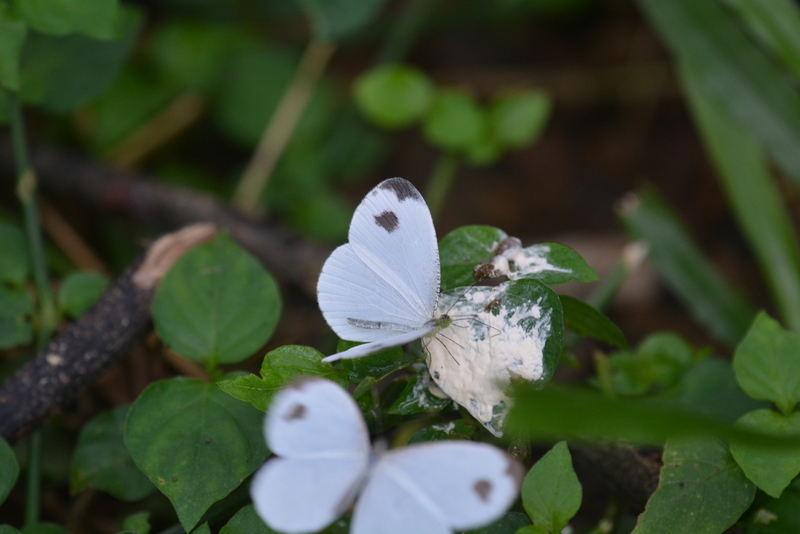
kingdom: Animalia
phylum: Arthropoda
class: Insecta
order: Lepidoptera
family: Pieridae
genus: Leptosia
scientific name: Leptosia nina
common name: Psyche
